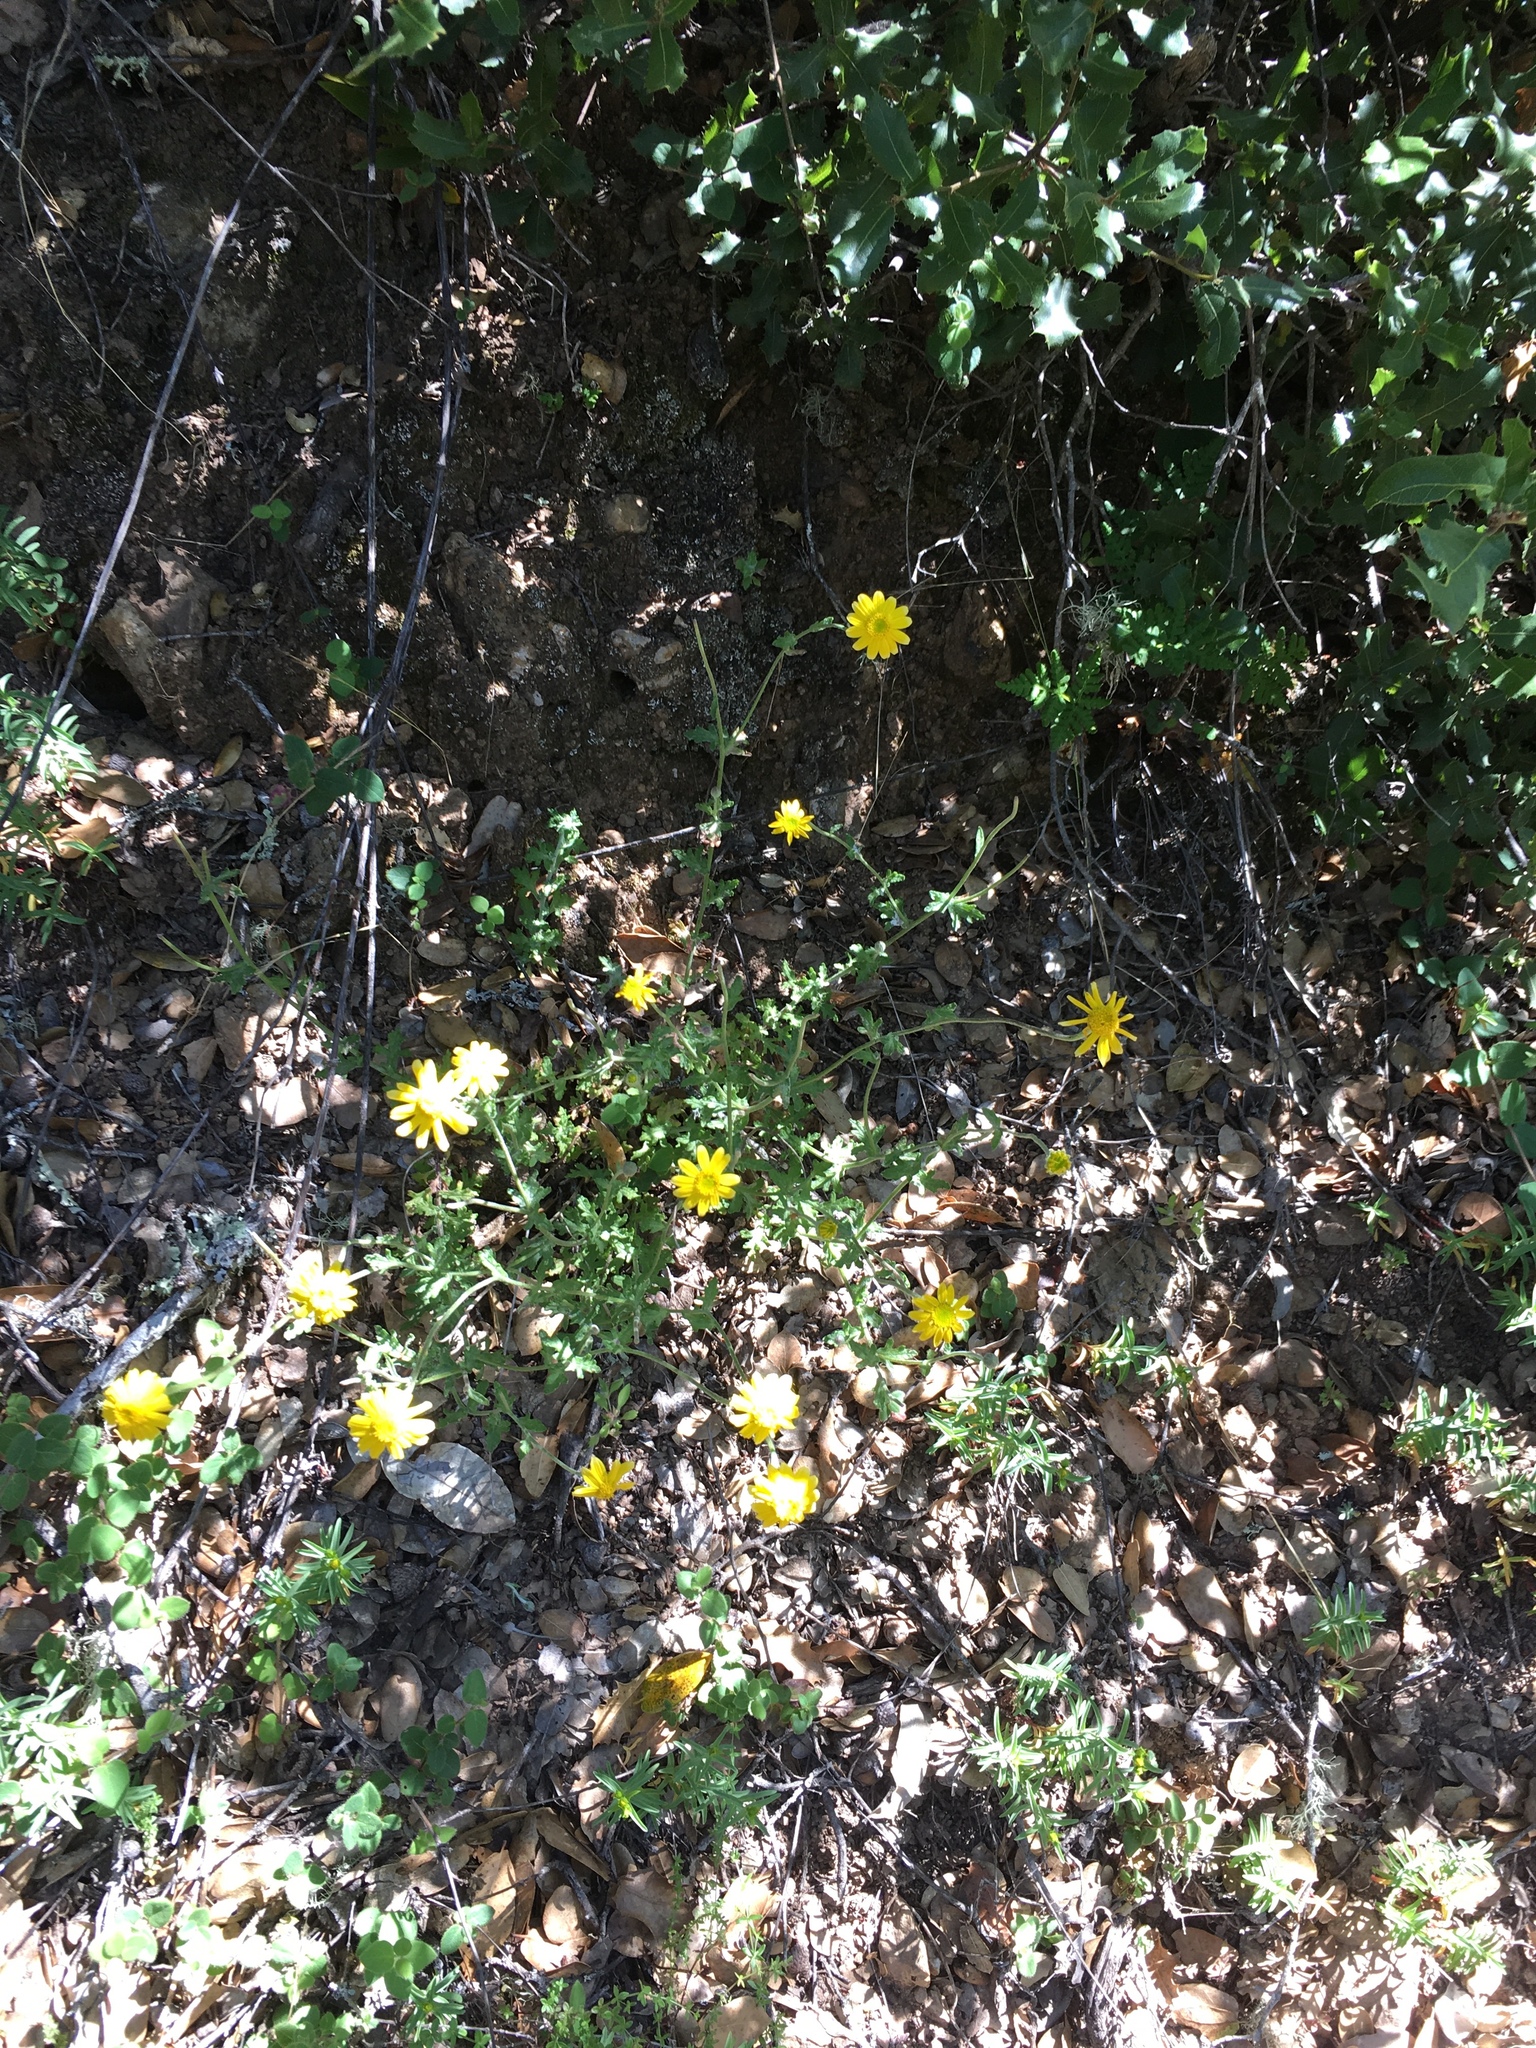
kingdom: Plantae
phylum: Tracheophyta
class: Magnoliopsida
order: Asterales
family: Asteraceae
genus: Eriophyllum
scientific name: Eriophyllum lanatum
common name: Common woolly-sunflower
